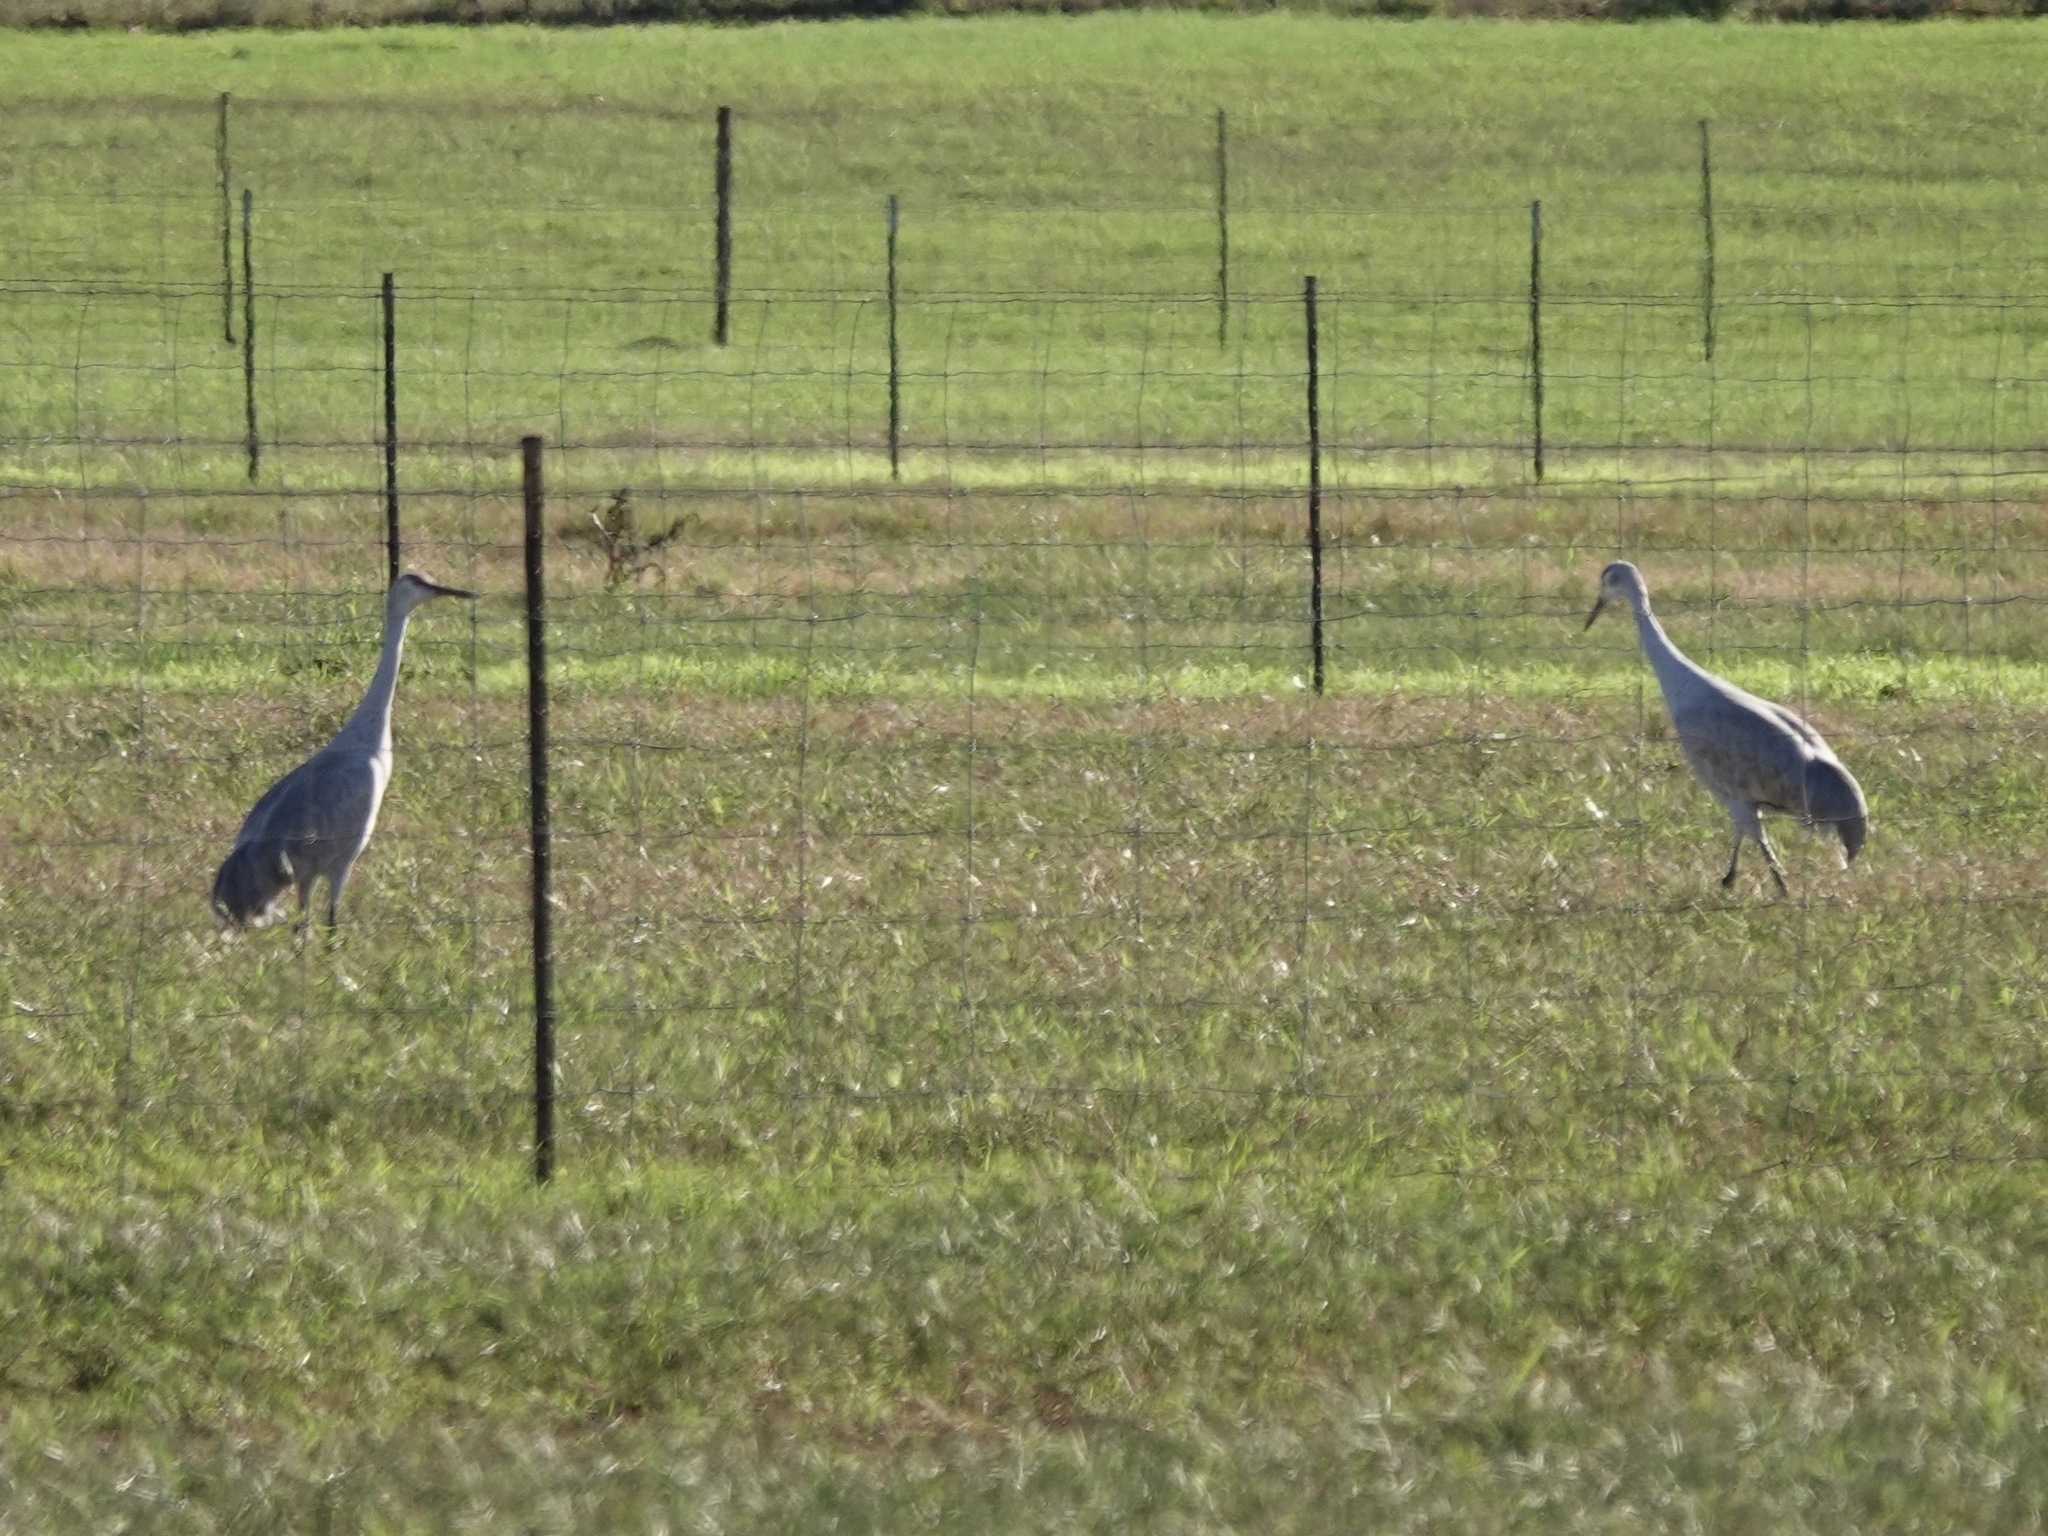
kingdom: Animalia
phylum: Chordata
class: Aves
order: Gruiformes
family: Gruidae
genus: Grus
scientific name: Grus canadensis
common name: Sandhill crane
